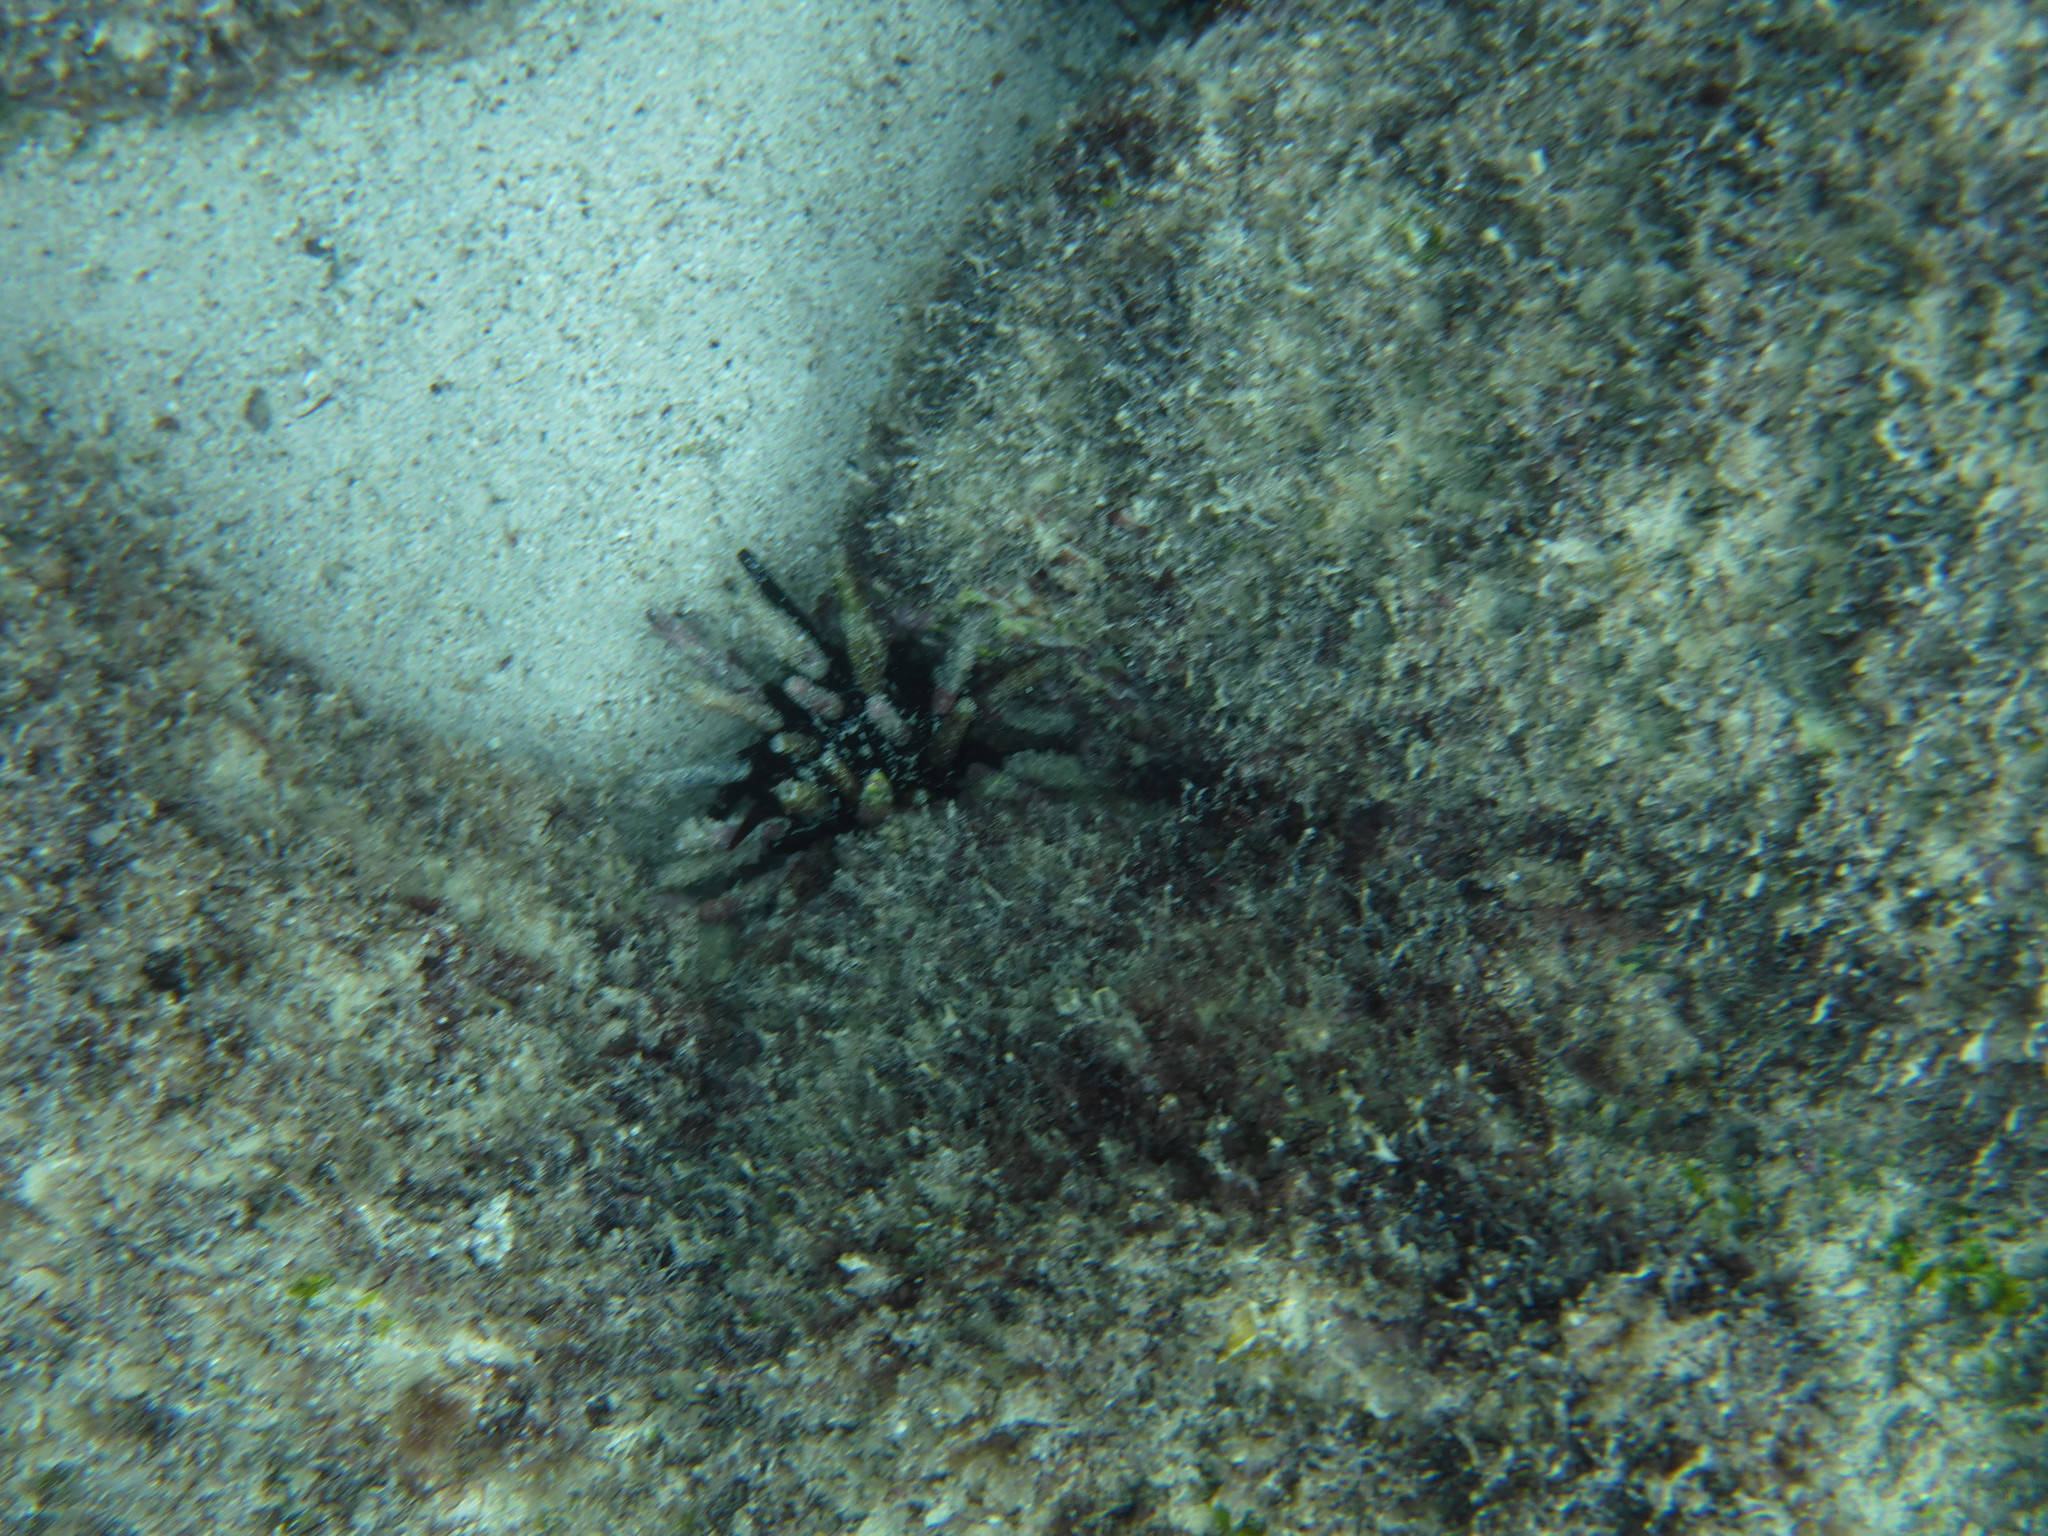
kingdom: Animalia
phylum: Echinodermata
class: Echinoidea
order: Cidaroida
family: Cidaridae
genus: Eucidaris
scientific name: Eucidaris galapagensis
